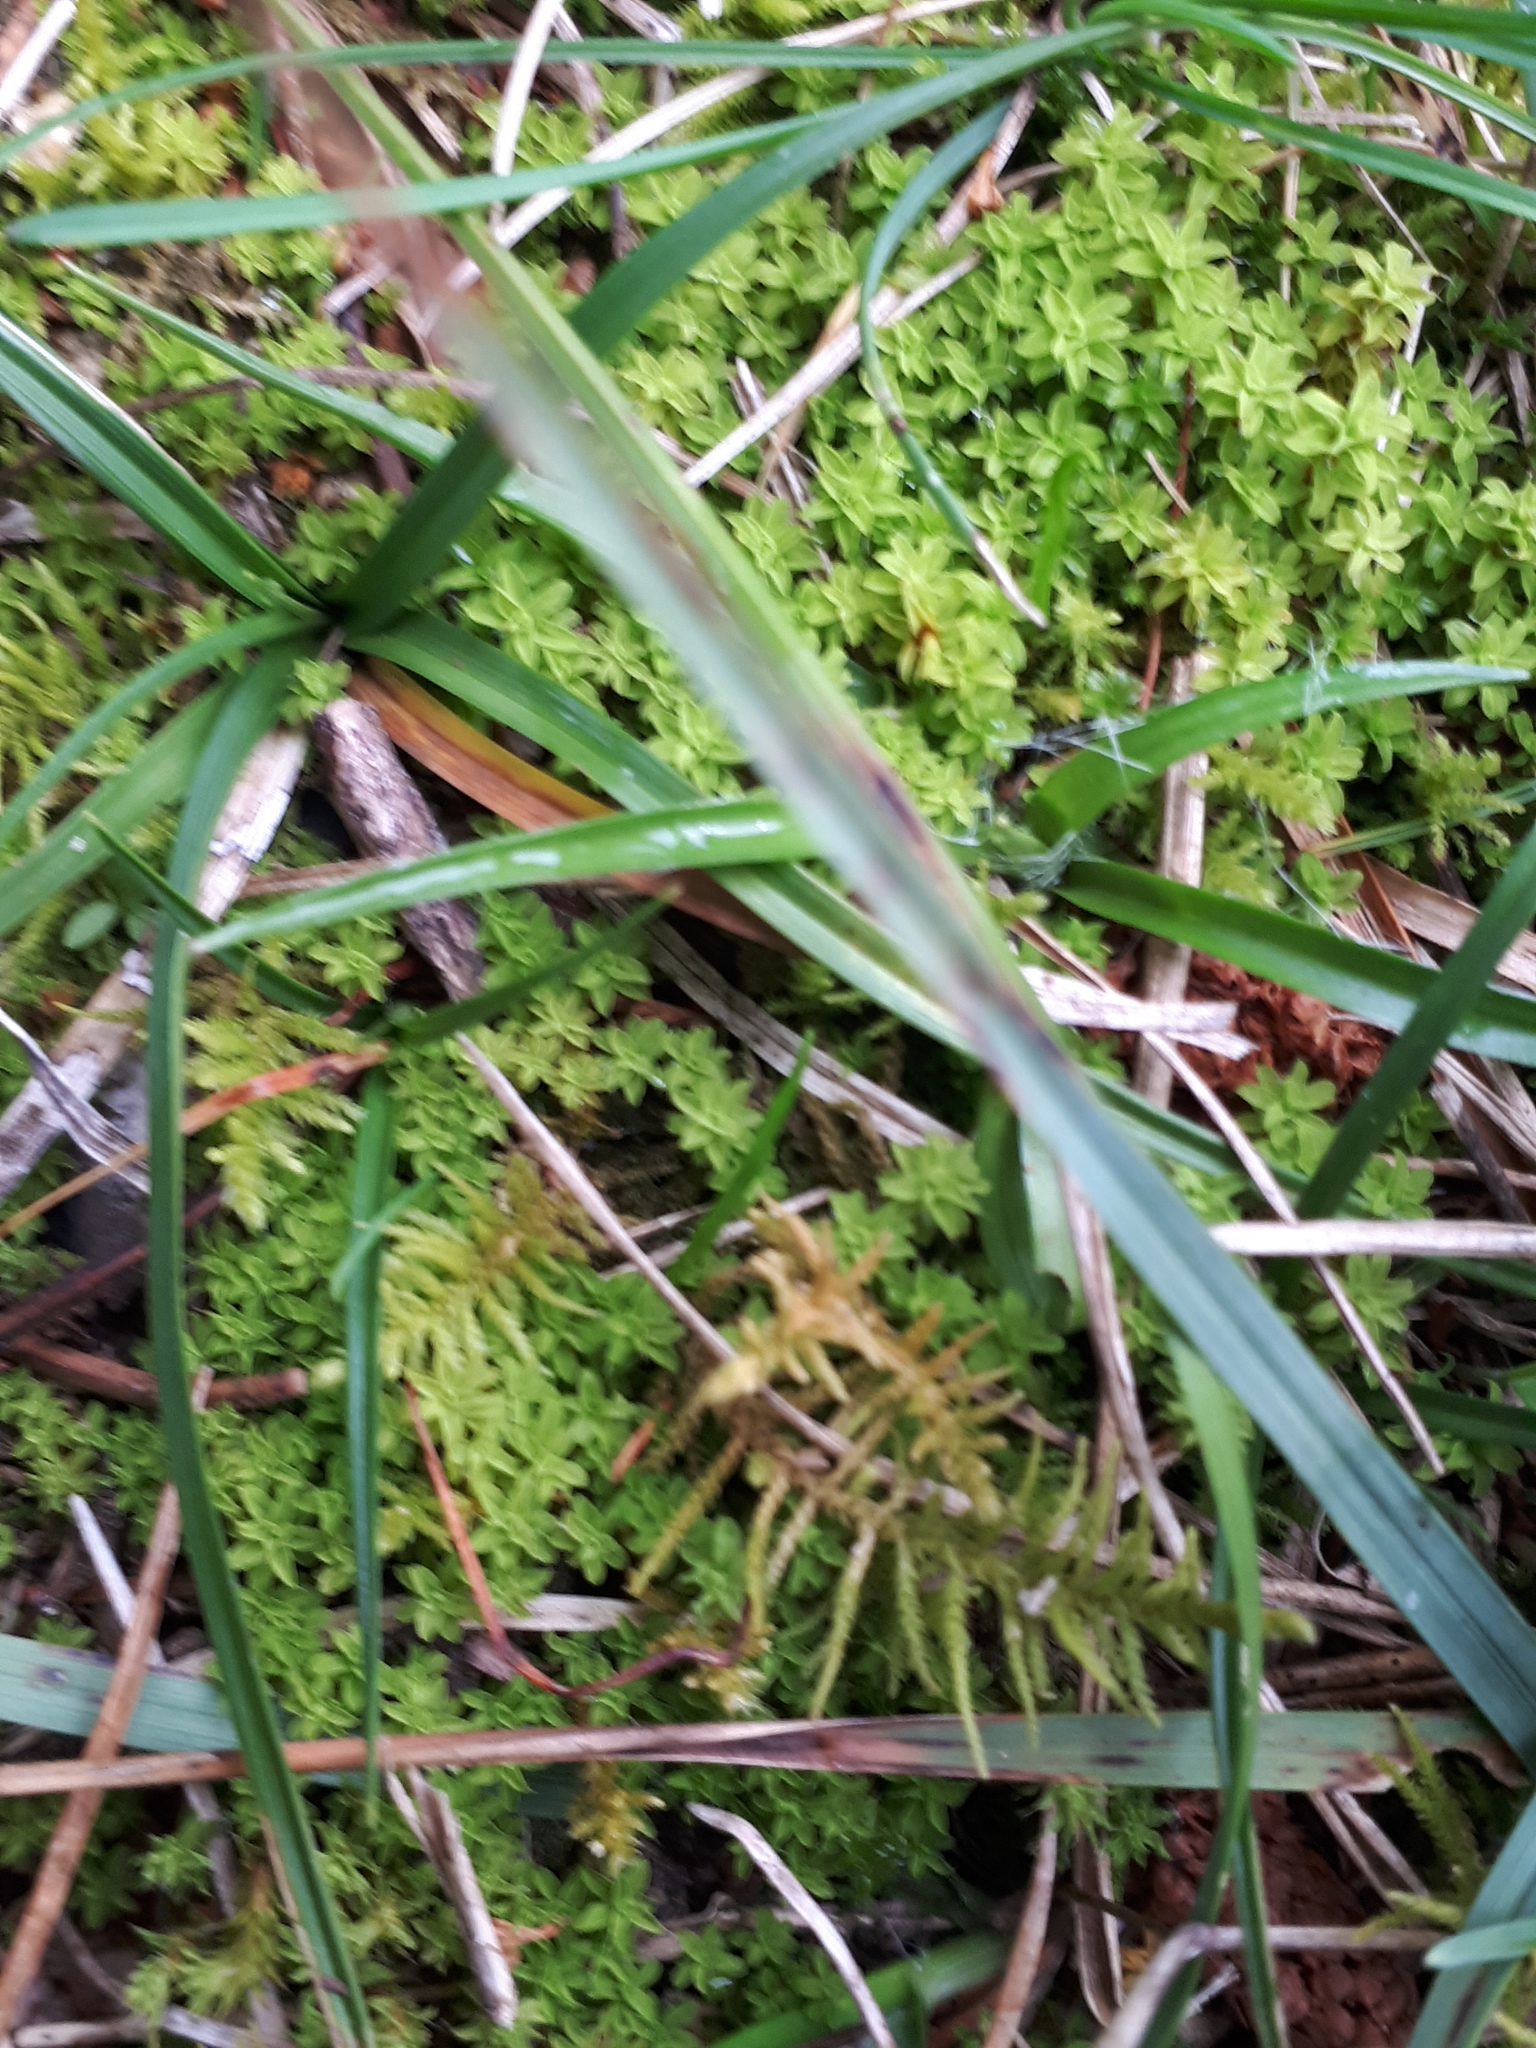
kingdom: Plantae
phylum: Bryophyta
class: Bryopsida
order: Pottiales
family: Pottiaceae
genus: Syntrichia
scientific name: Syntrichia ruralis
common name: Sidewalk screw moss
